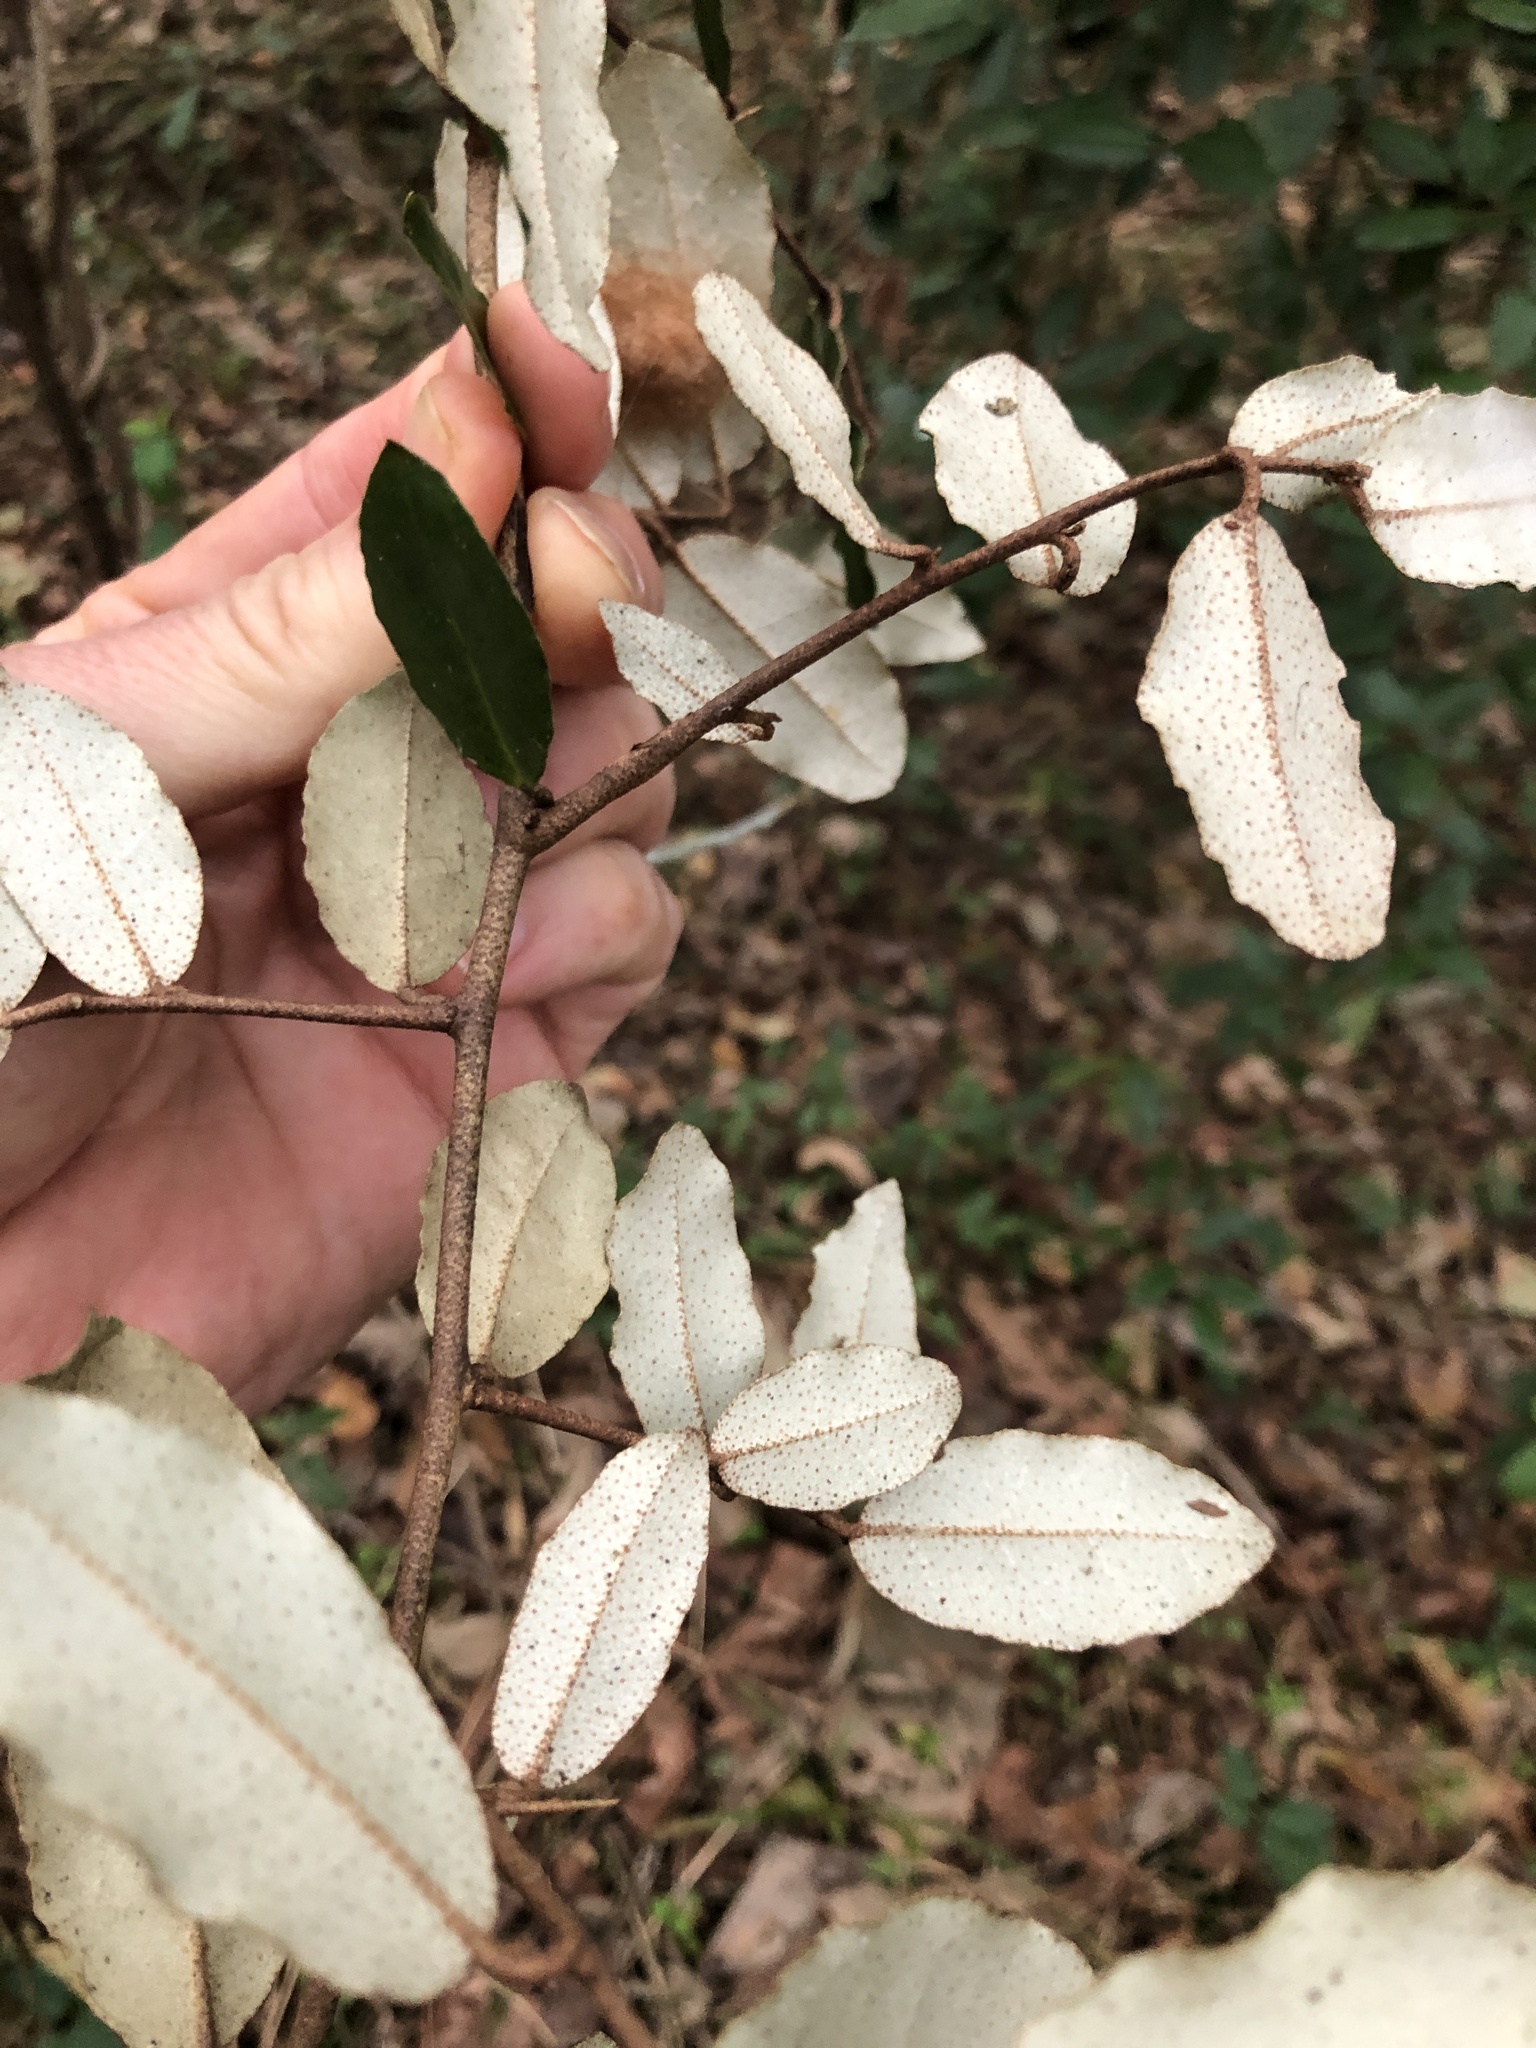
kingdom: Plantae
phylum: Tracheophyta
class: Magnoliopsida
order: Rosales
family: Elaeagnaceae
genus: Elaeagnus
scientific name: Elaeagnus pungens
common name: Spiny oleaster
